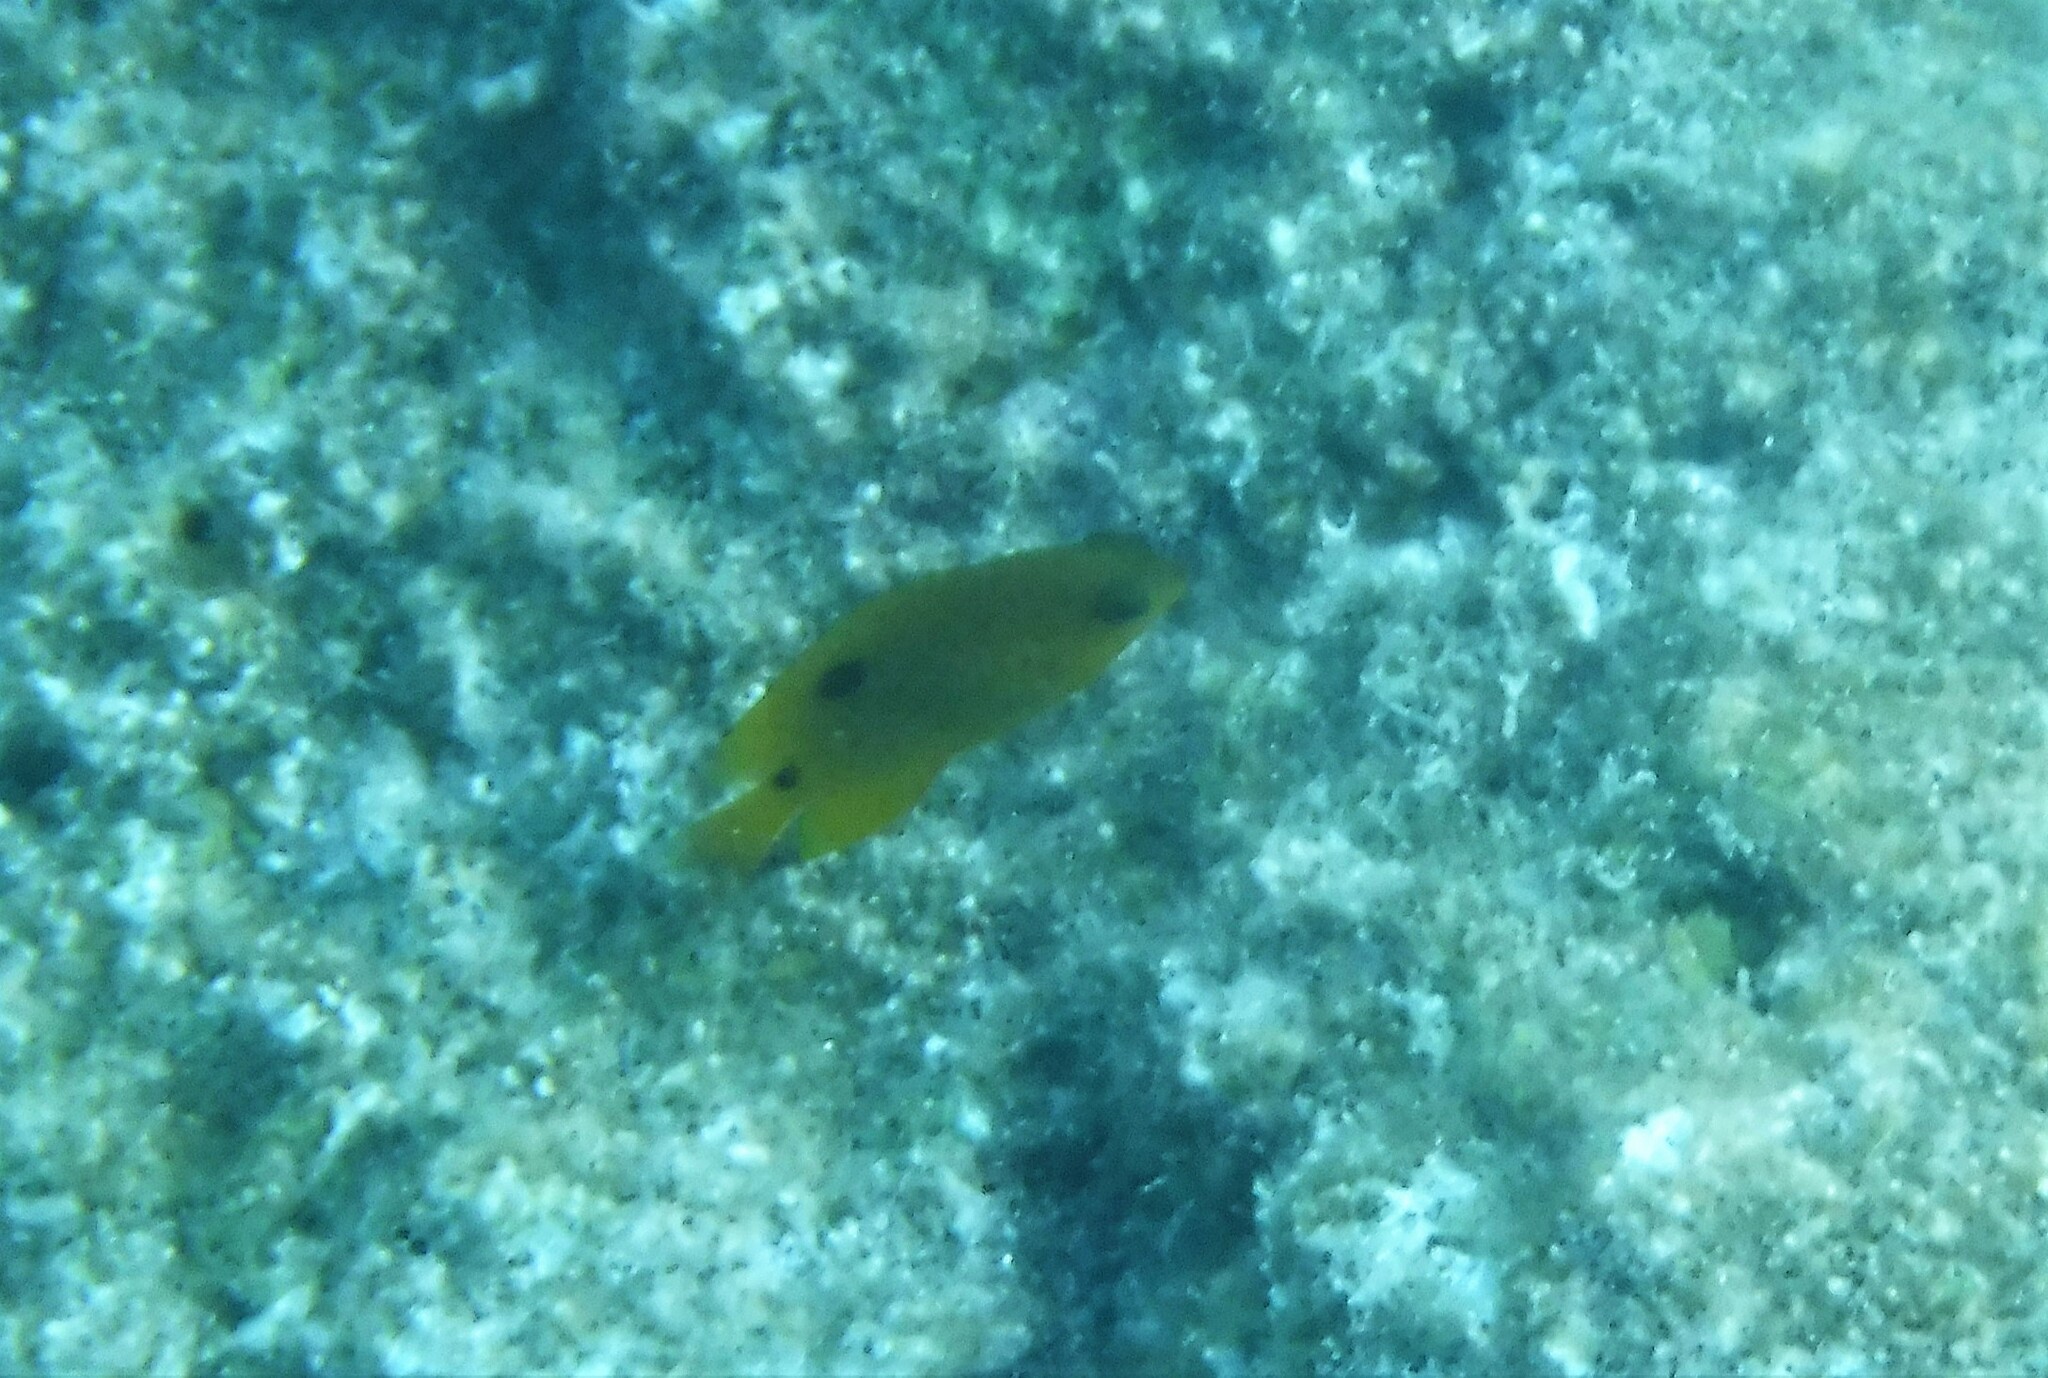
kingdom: Animalia
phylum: Chordata
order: Perciformes
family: Pomacentridae
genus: Stegastes
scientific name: Stegastes planifrons
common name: Threespot damselfish
